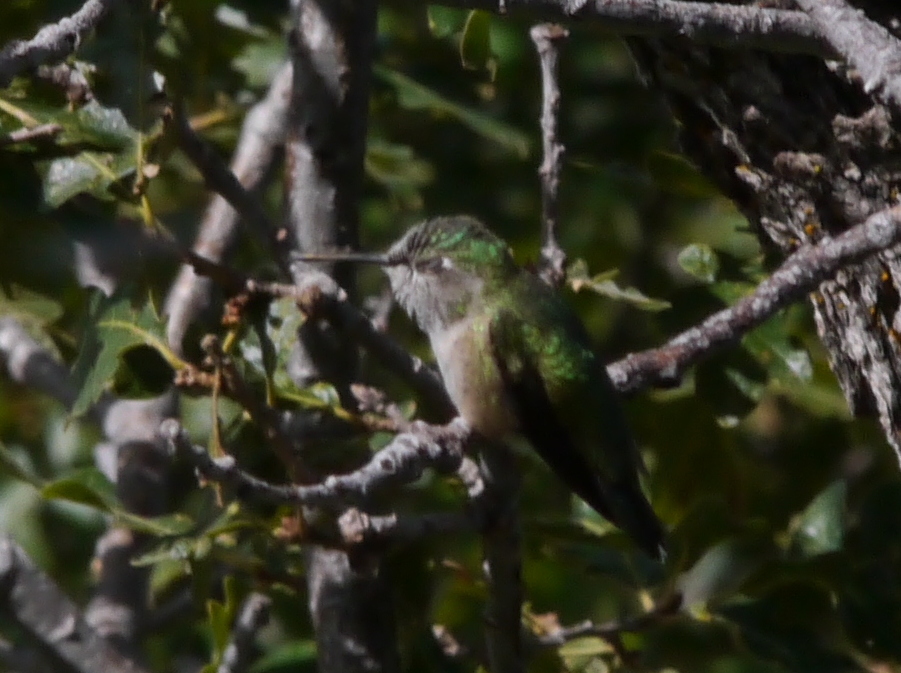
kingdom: Animalia
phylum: Chordata
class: Aves
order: Apodiformes
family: Trochilidae
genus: Selasphorus
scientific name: Selasphorus platycercus
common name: Broad-tailed hummingbird
